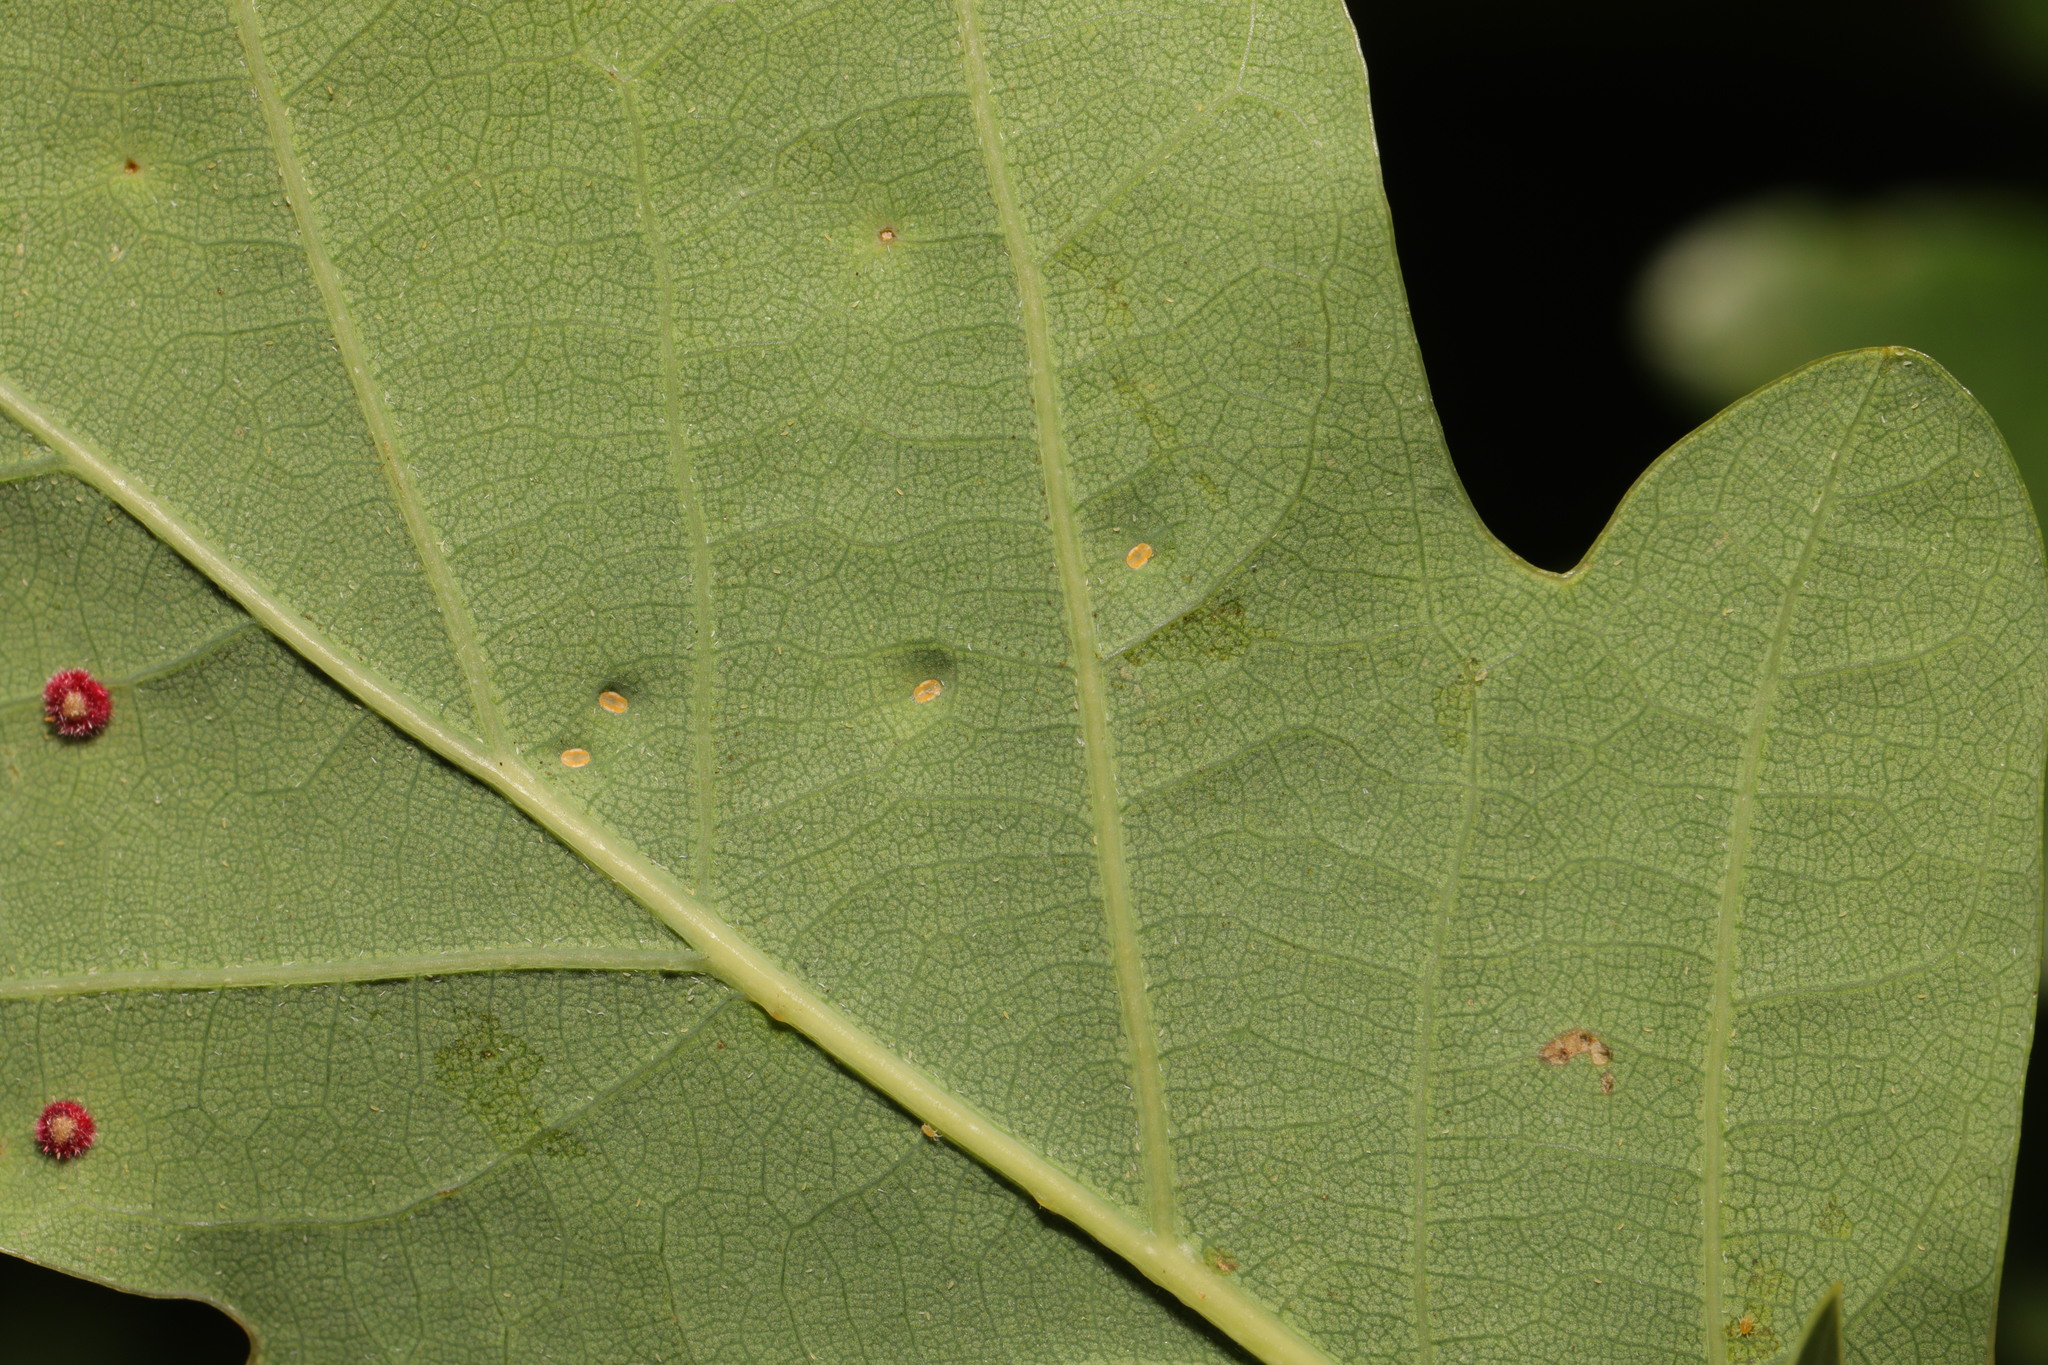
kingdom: Animalia
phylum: Arthropoda
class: Insecta
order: Hemiptera
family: Triozidae
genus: Trioza
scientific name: Trioza remota
